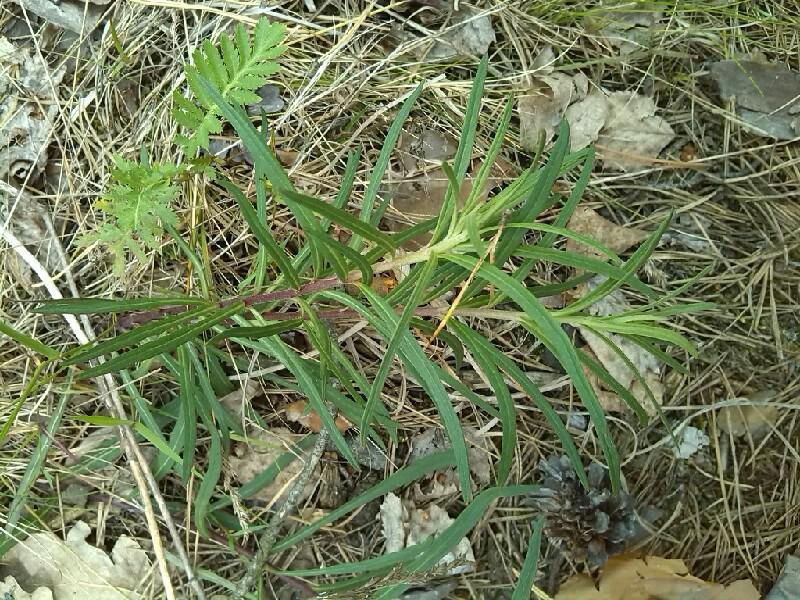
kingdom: Plantae
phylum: Tracheophyta
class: Magnoliopsida
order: Asterales
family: Asteraceae
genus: Hieracium
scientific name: Hieracium umbellatum
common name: Northern hawkweed
